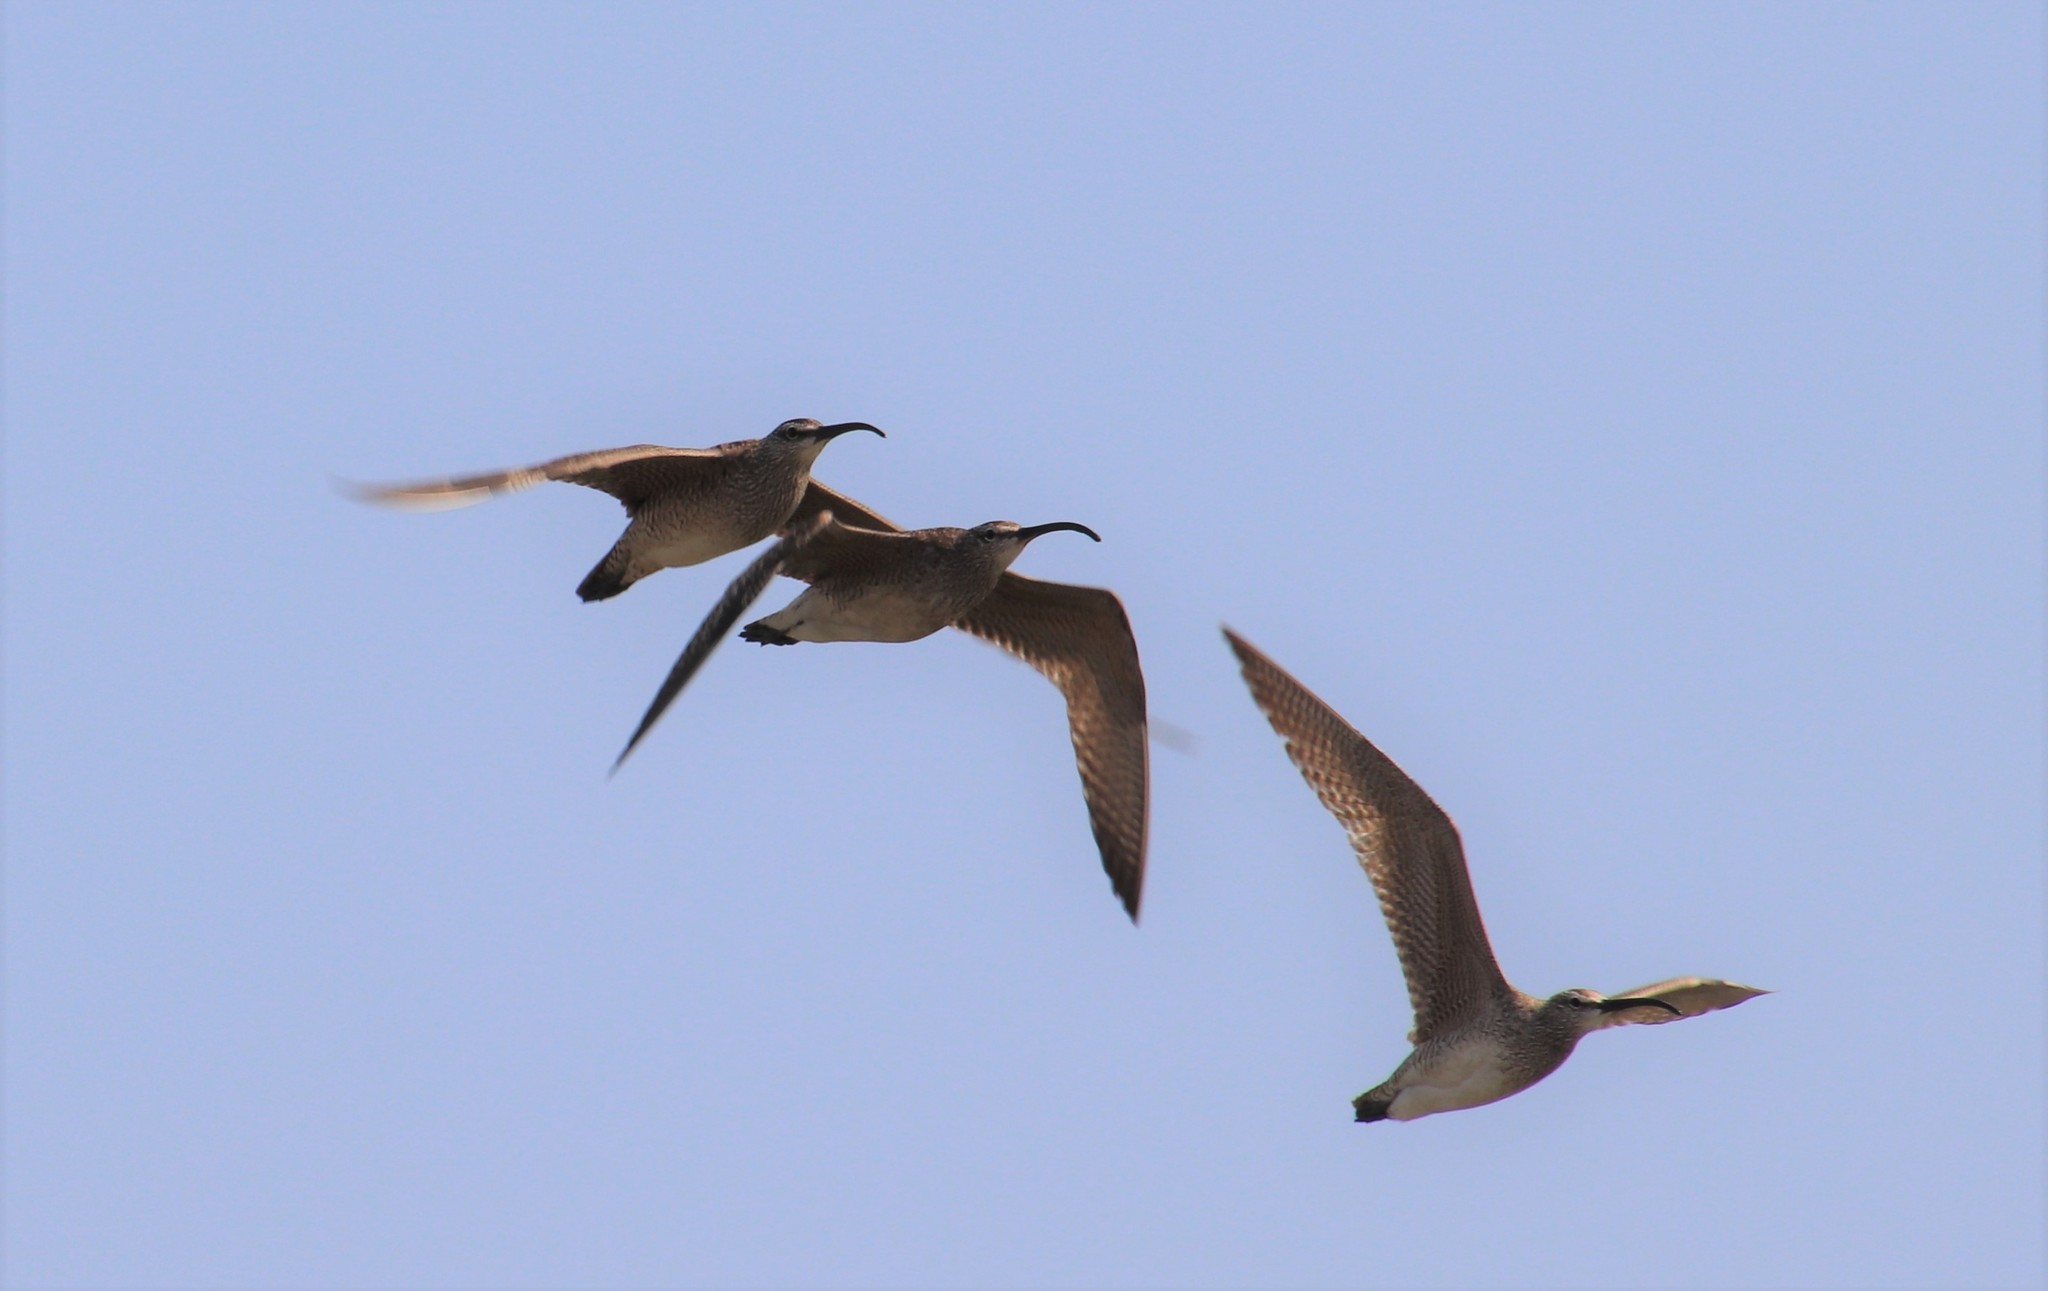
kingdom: Animalia
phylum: Chordata
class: Aves
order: Charadriiformes
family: Scolopacidae
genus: Numenius
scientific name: Numenius phaeopus
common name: Whimbrel
